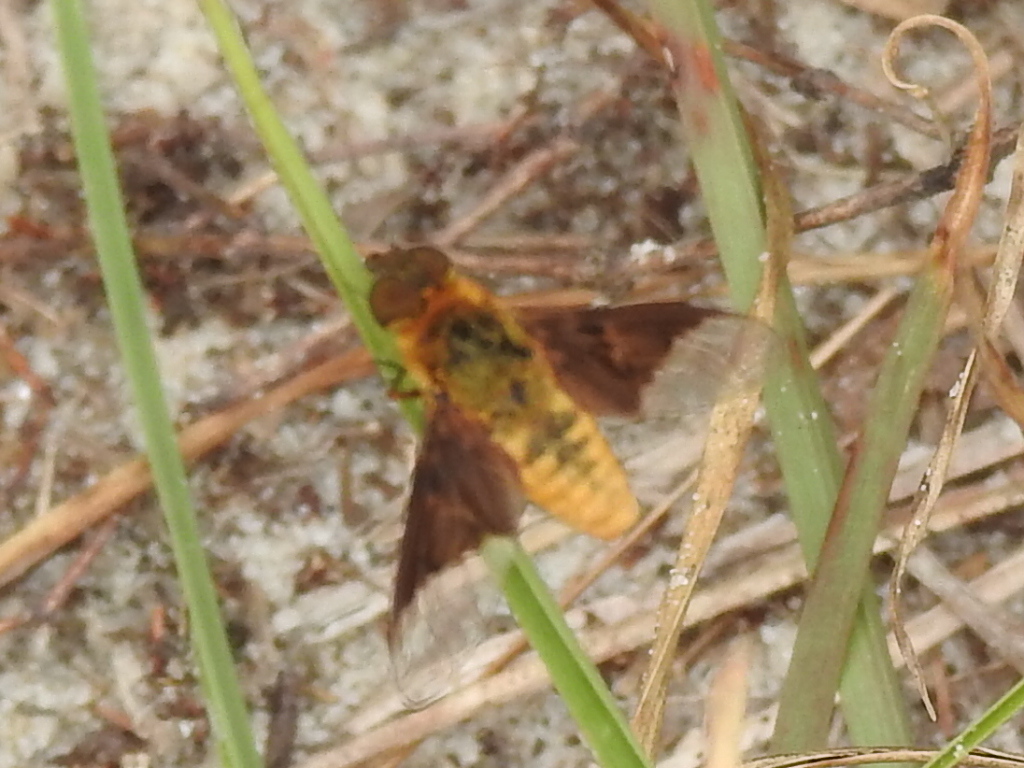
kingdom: Animalia
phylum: Arthropoda
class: Insecta
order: Diptera
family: Bombyliidae
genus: Chrysanthrax
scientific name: Chrysanthrax cypris
